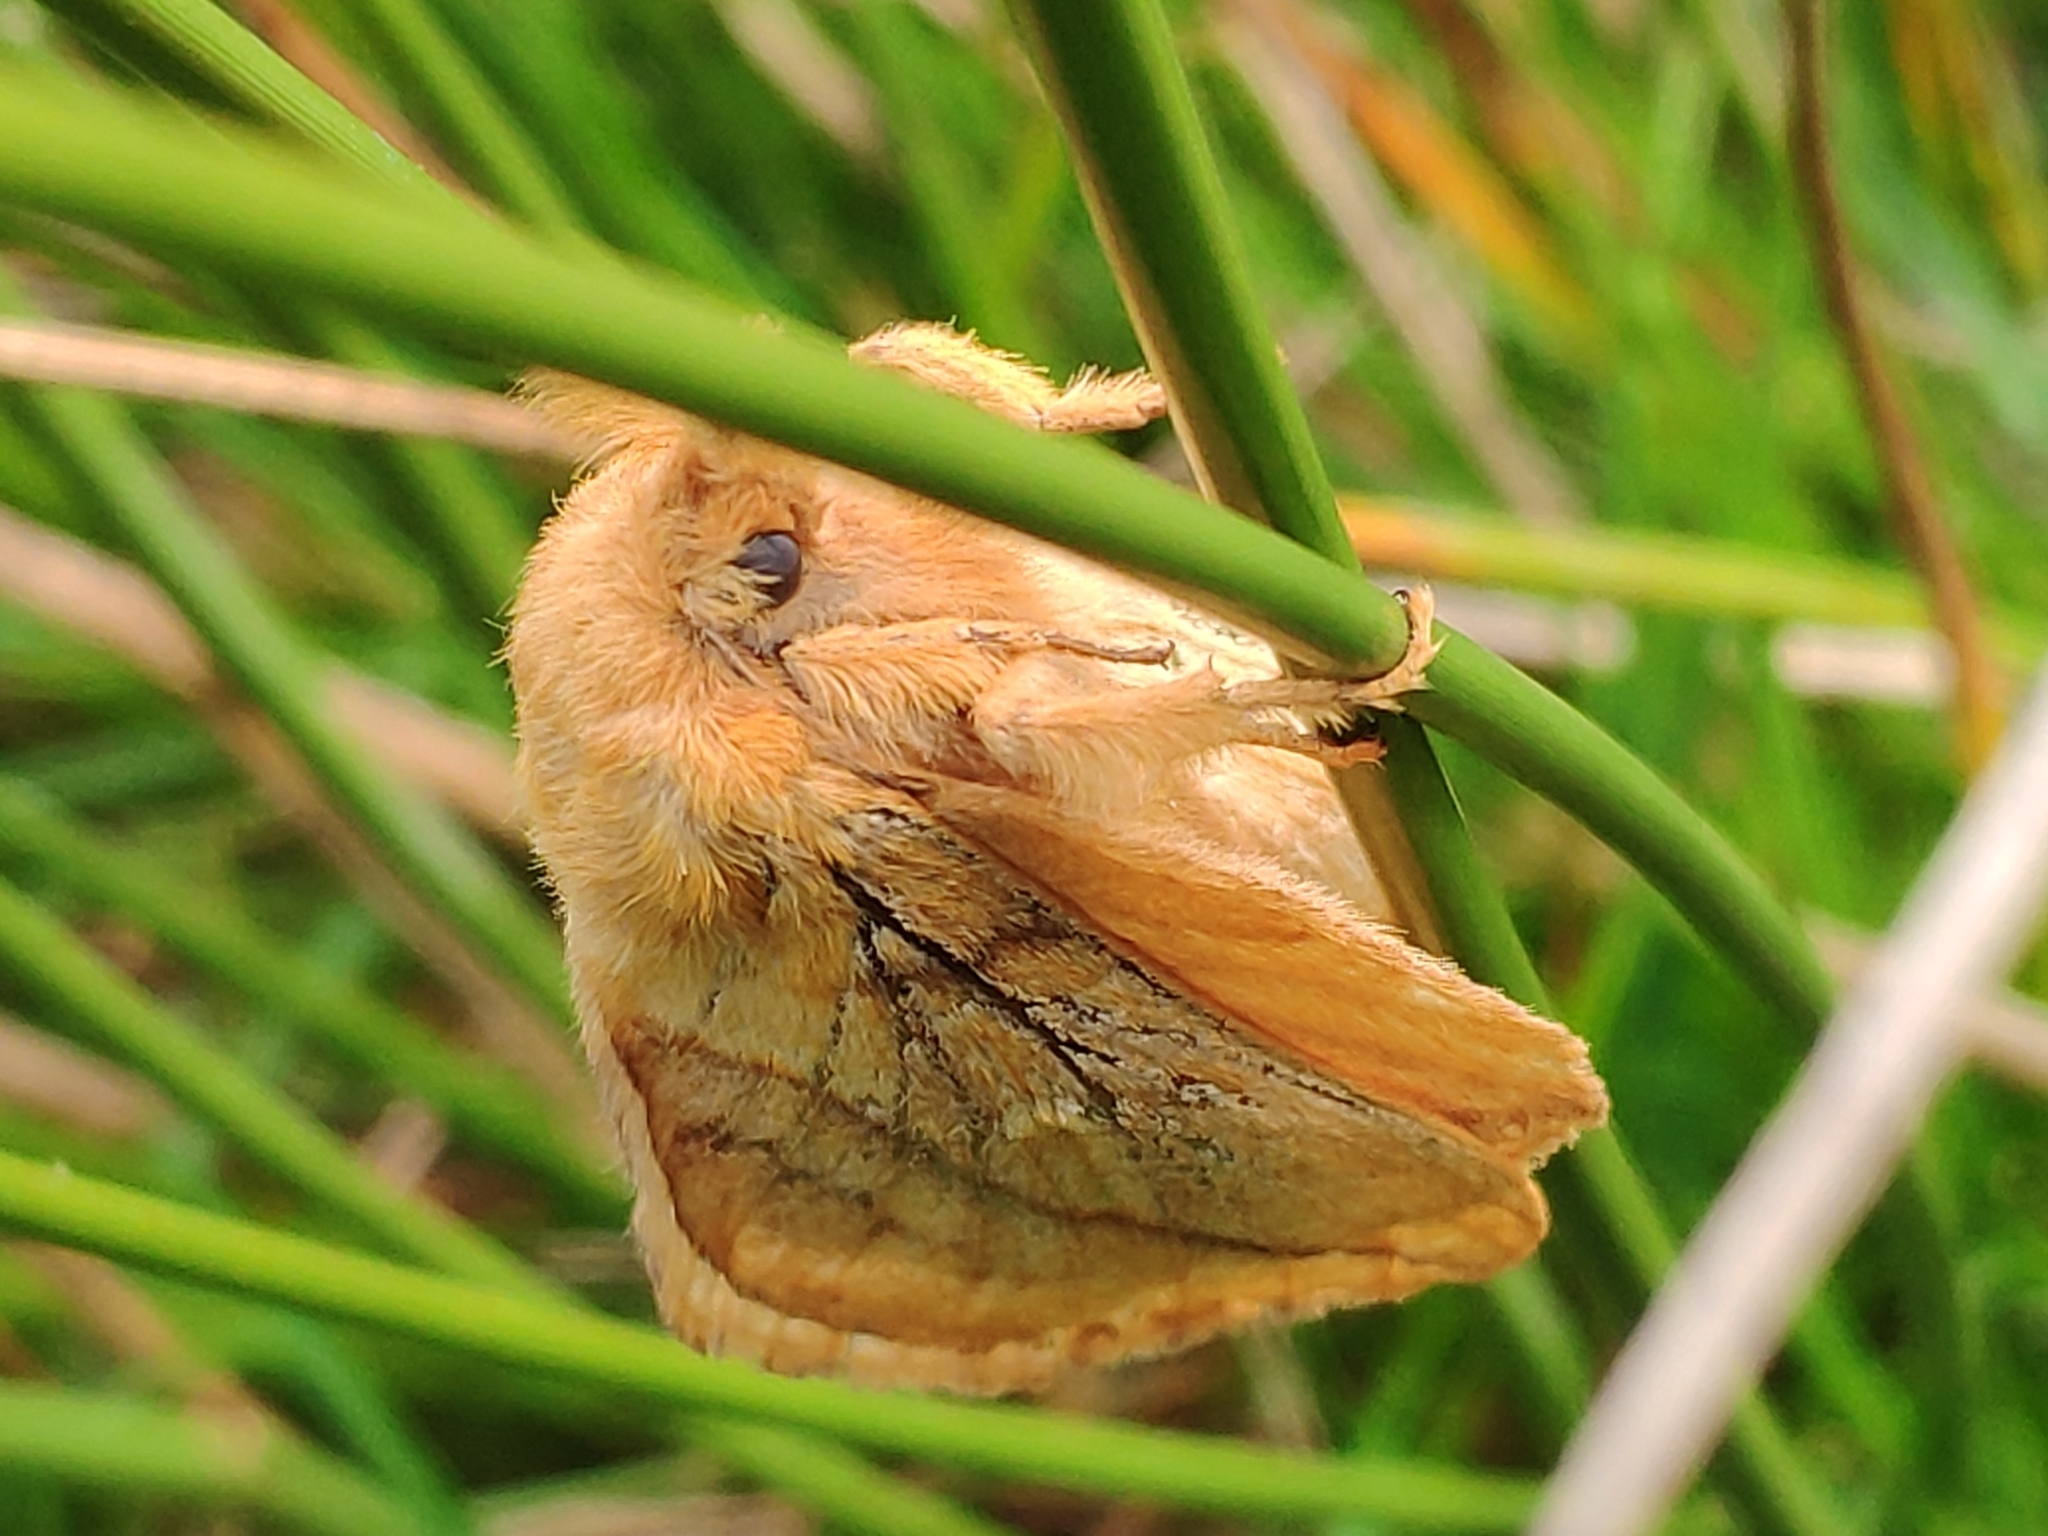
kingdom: Animalia
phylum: Arthropoda
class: Insecta
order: Lepidoptera
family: Lasiocampidae
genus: Euthrix
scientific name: Euthrix potatoria
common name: Drinker
